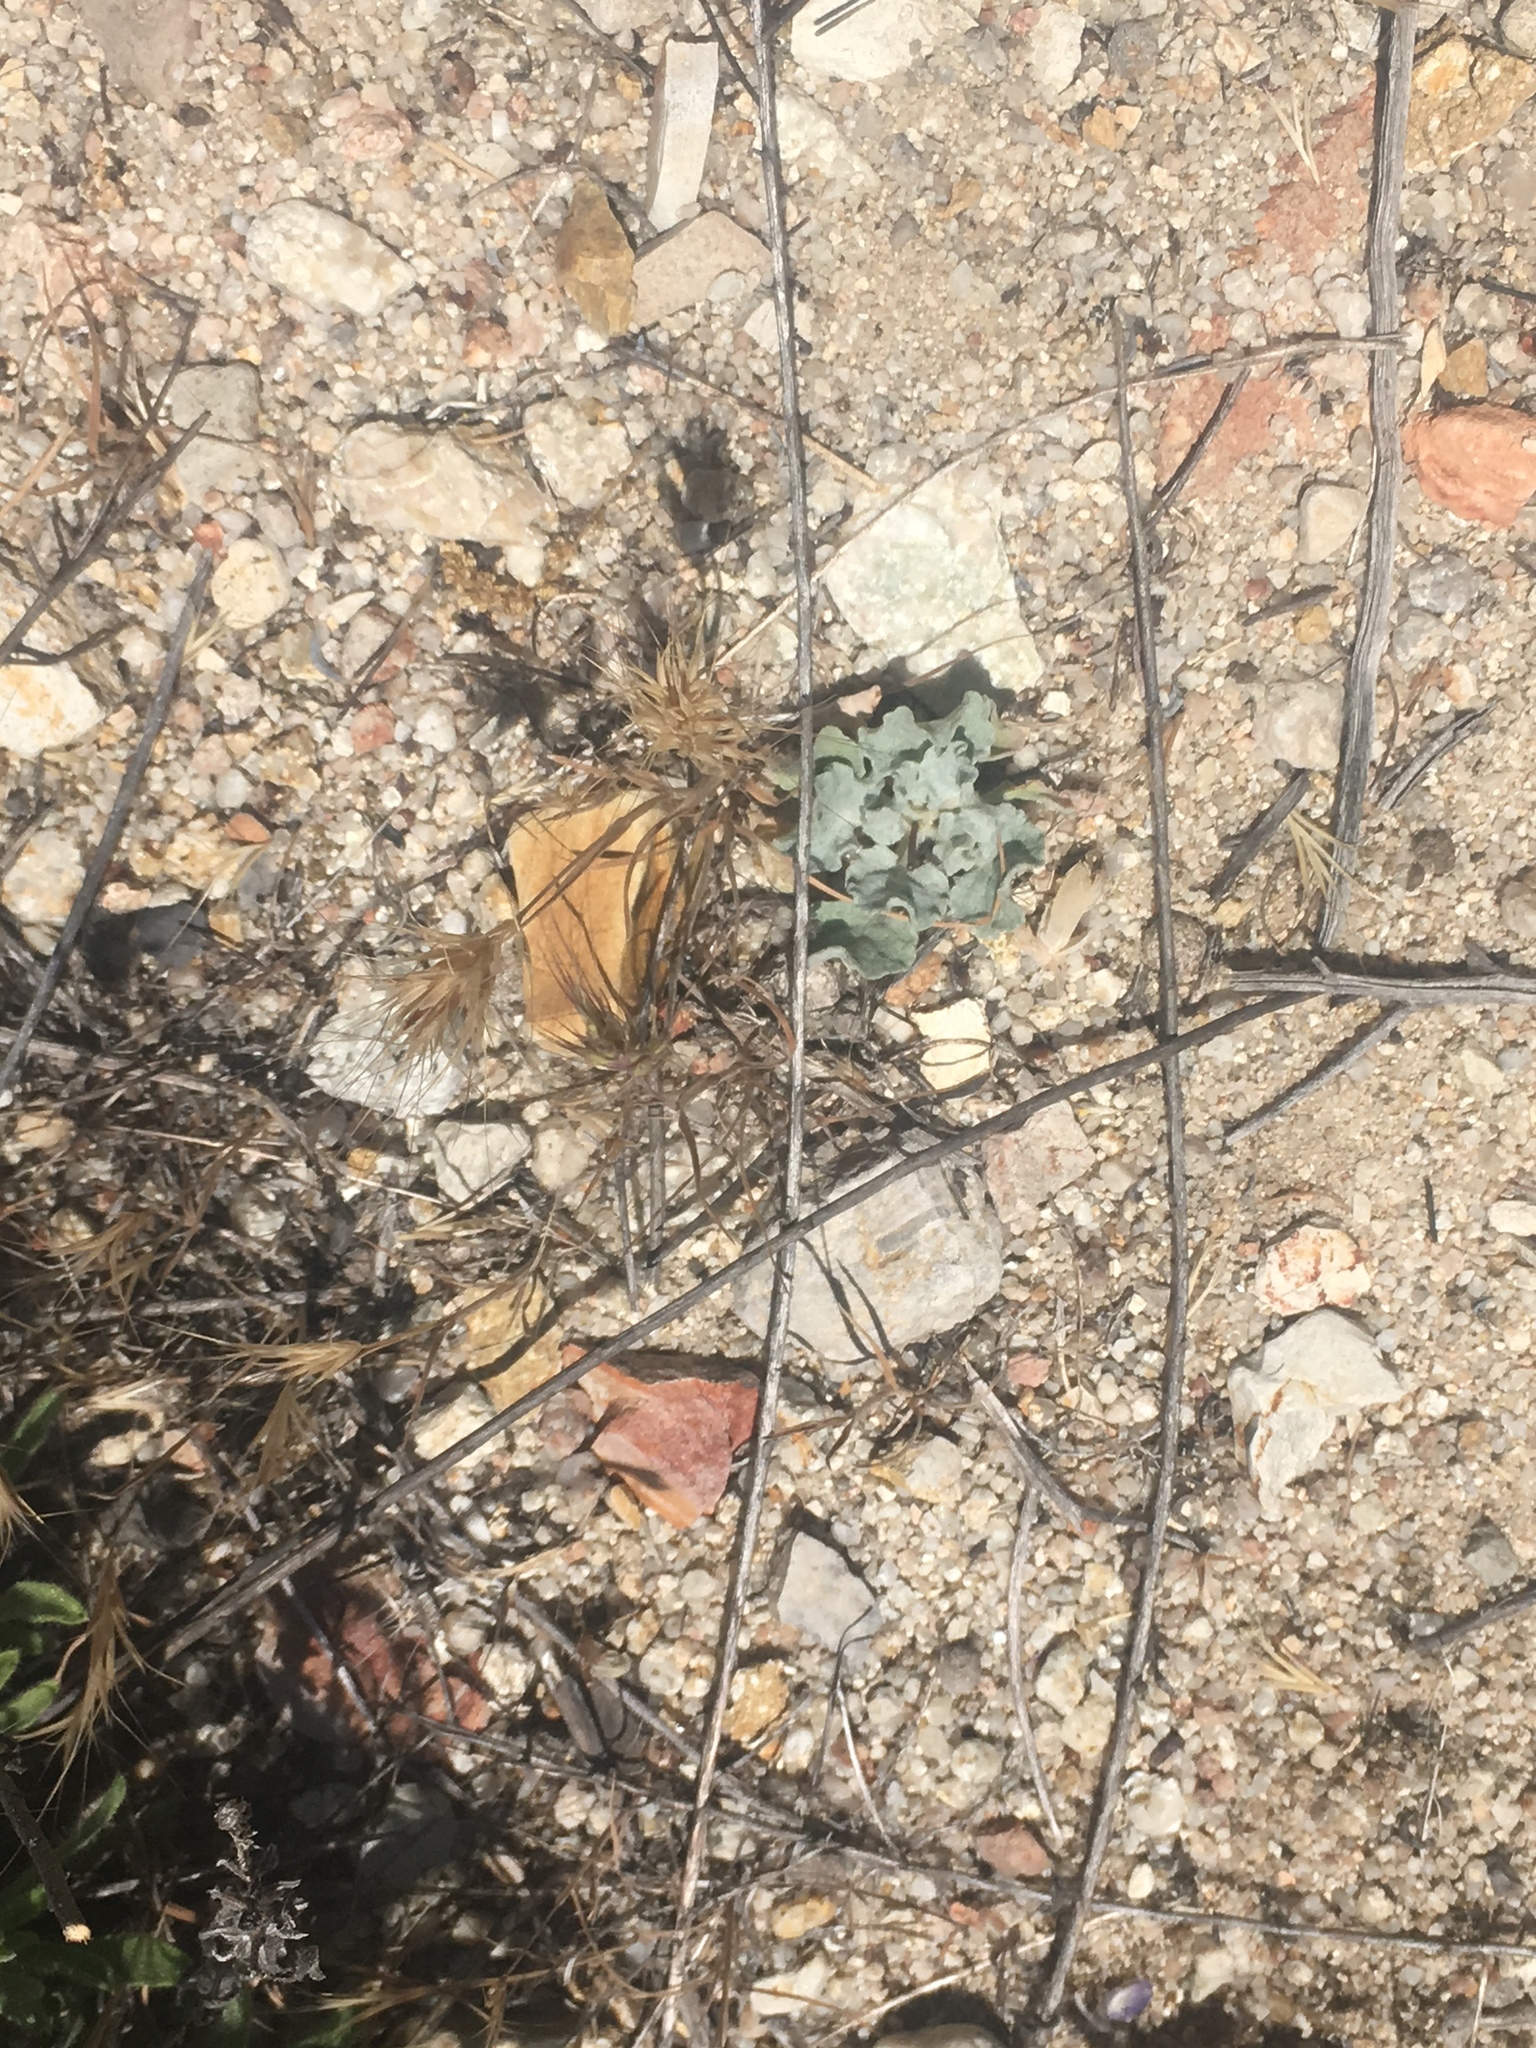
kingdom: Plantae
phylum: Tracheophyta
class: Magnoliopsida
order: Caryophyllales
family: Polygonaceae
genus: Eriogonum
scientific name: Eriogonum elegans
